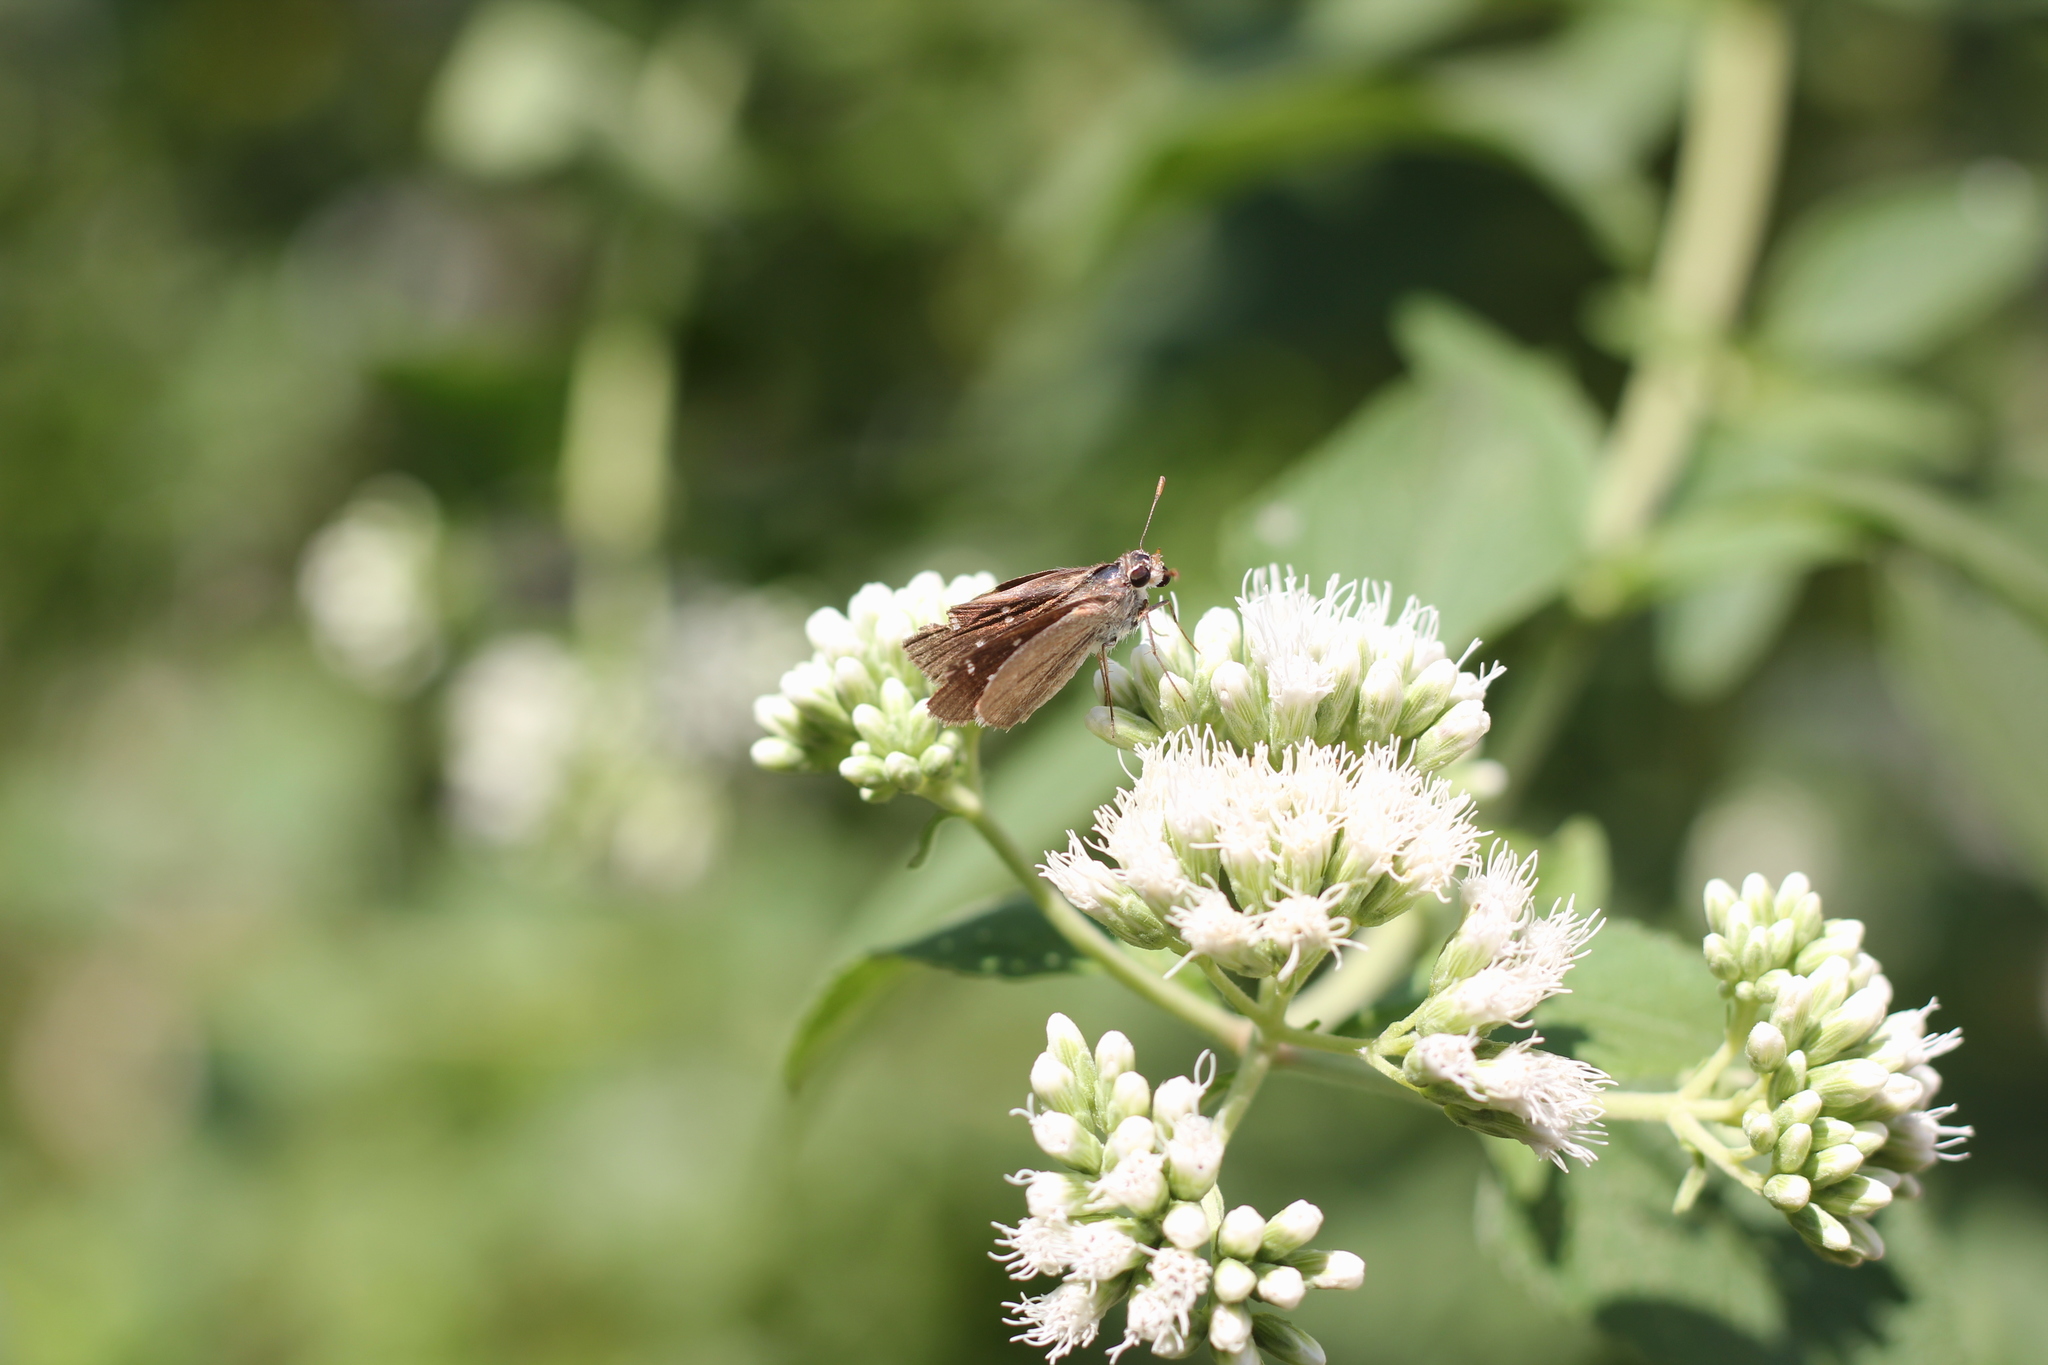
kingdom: Animalia
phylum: Arthropoda
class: Insecta
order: Lepidoptera
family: Hesperiidae
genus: Lerodea
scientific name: Lerodea eufala
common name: Eufala skipper
